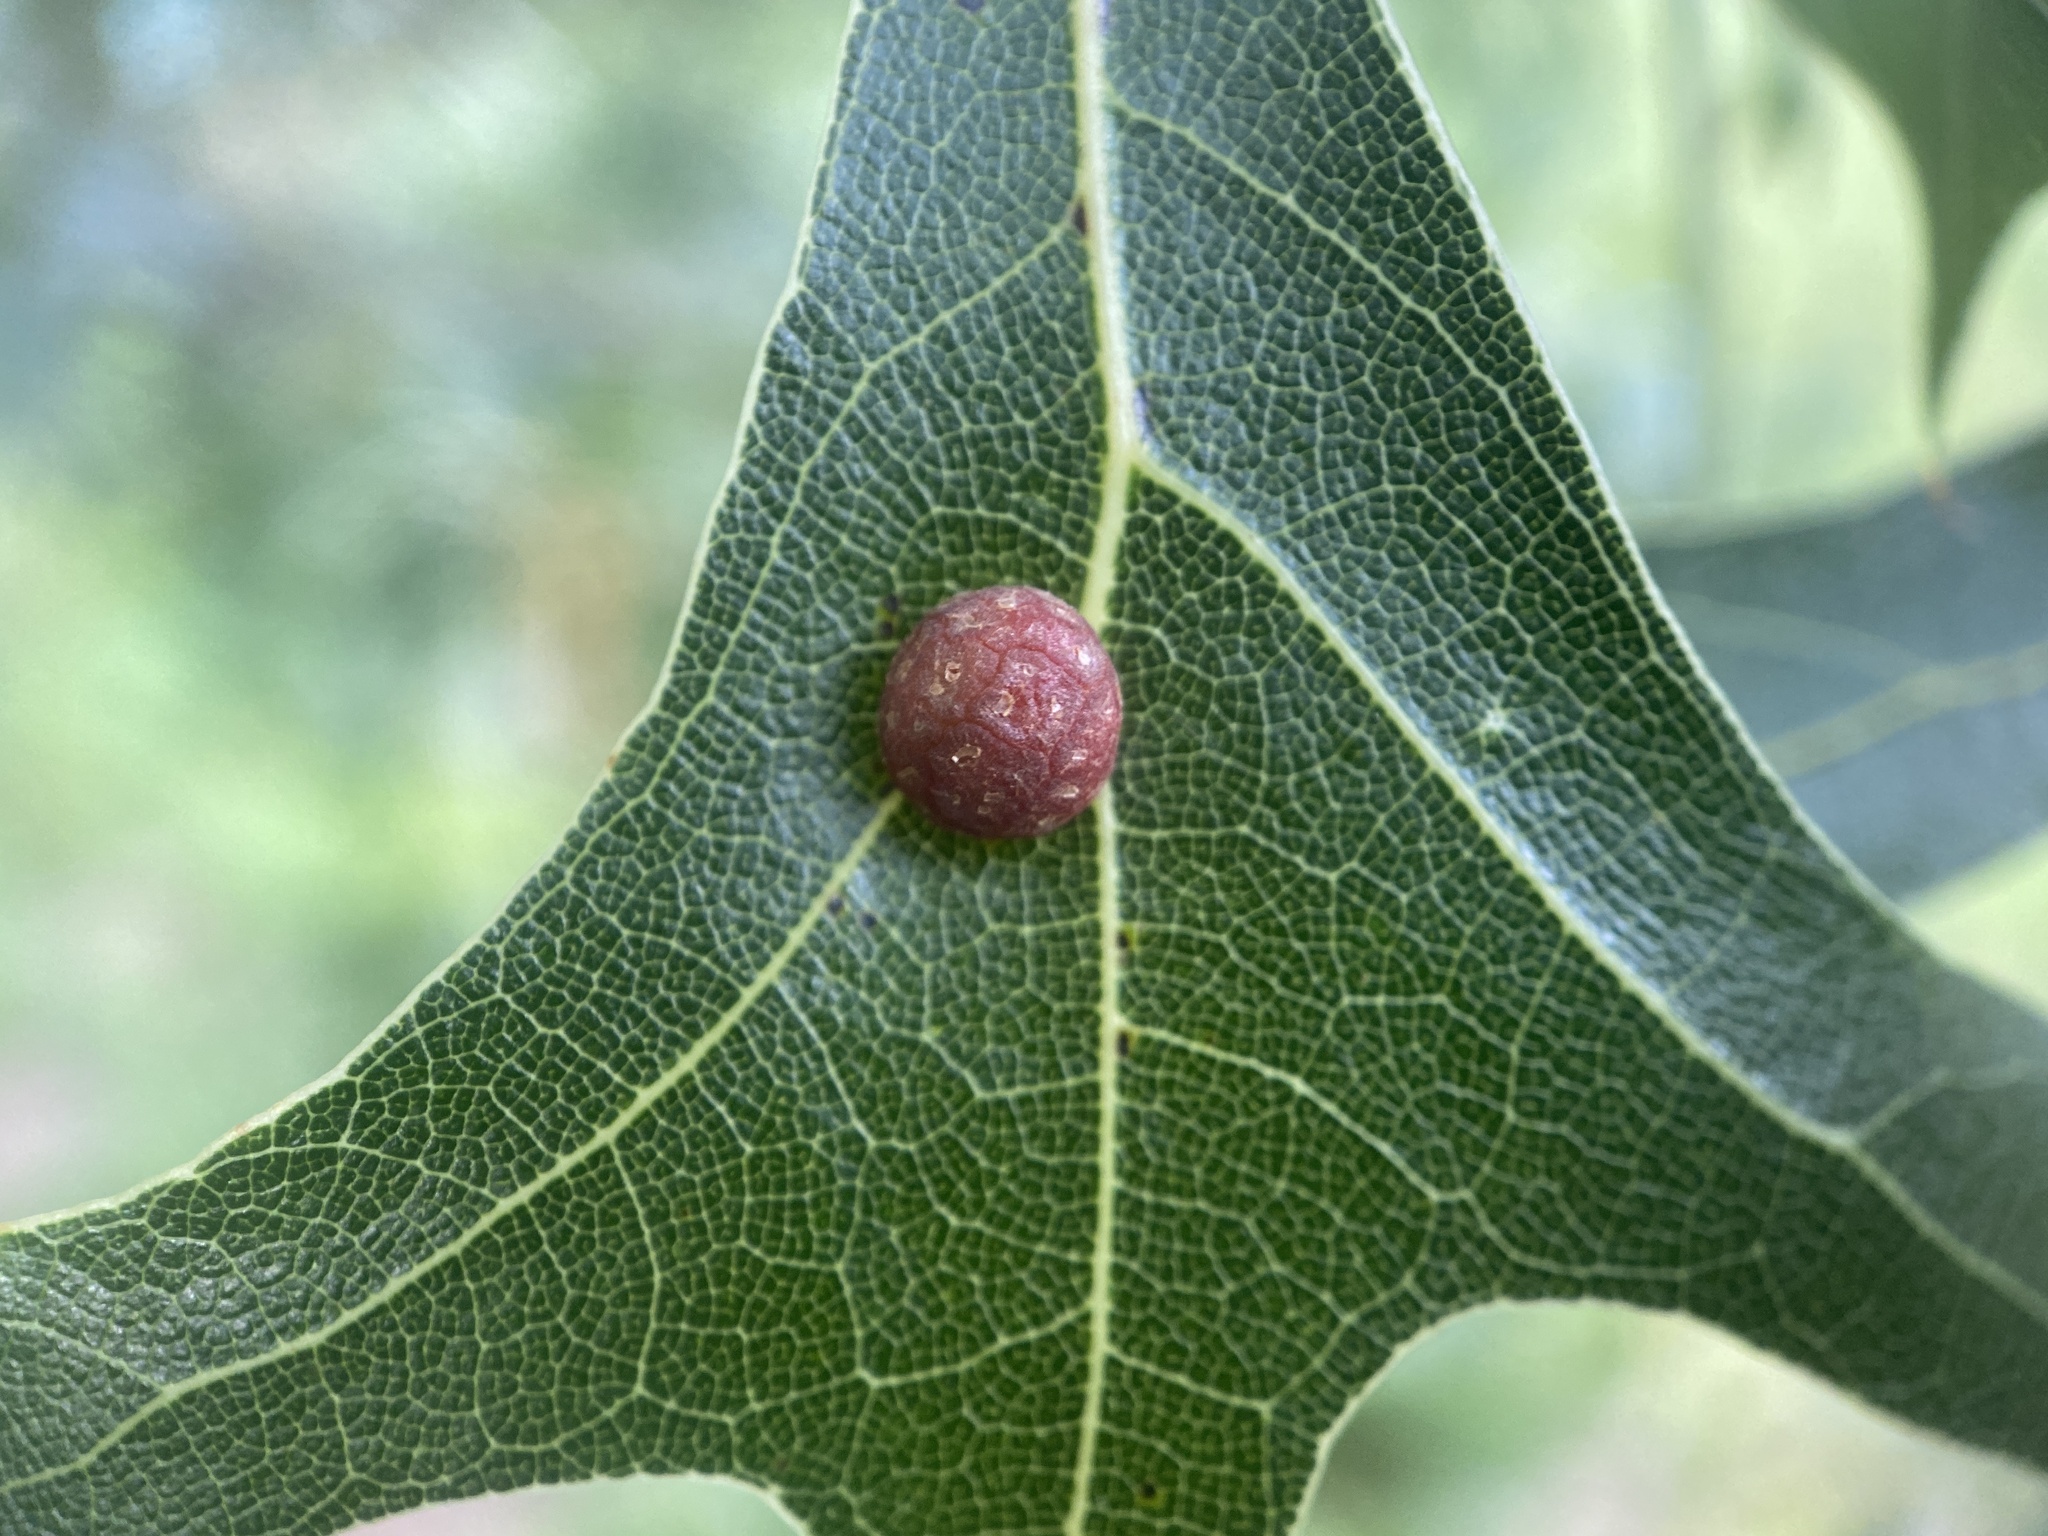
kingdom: Animalia
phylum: Arthropoda
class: Insecta
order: Diptera
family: Cecidomyiidae
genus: Polystepha
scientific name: Polystepha pilulae
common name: Oak leaf gall midge
